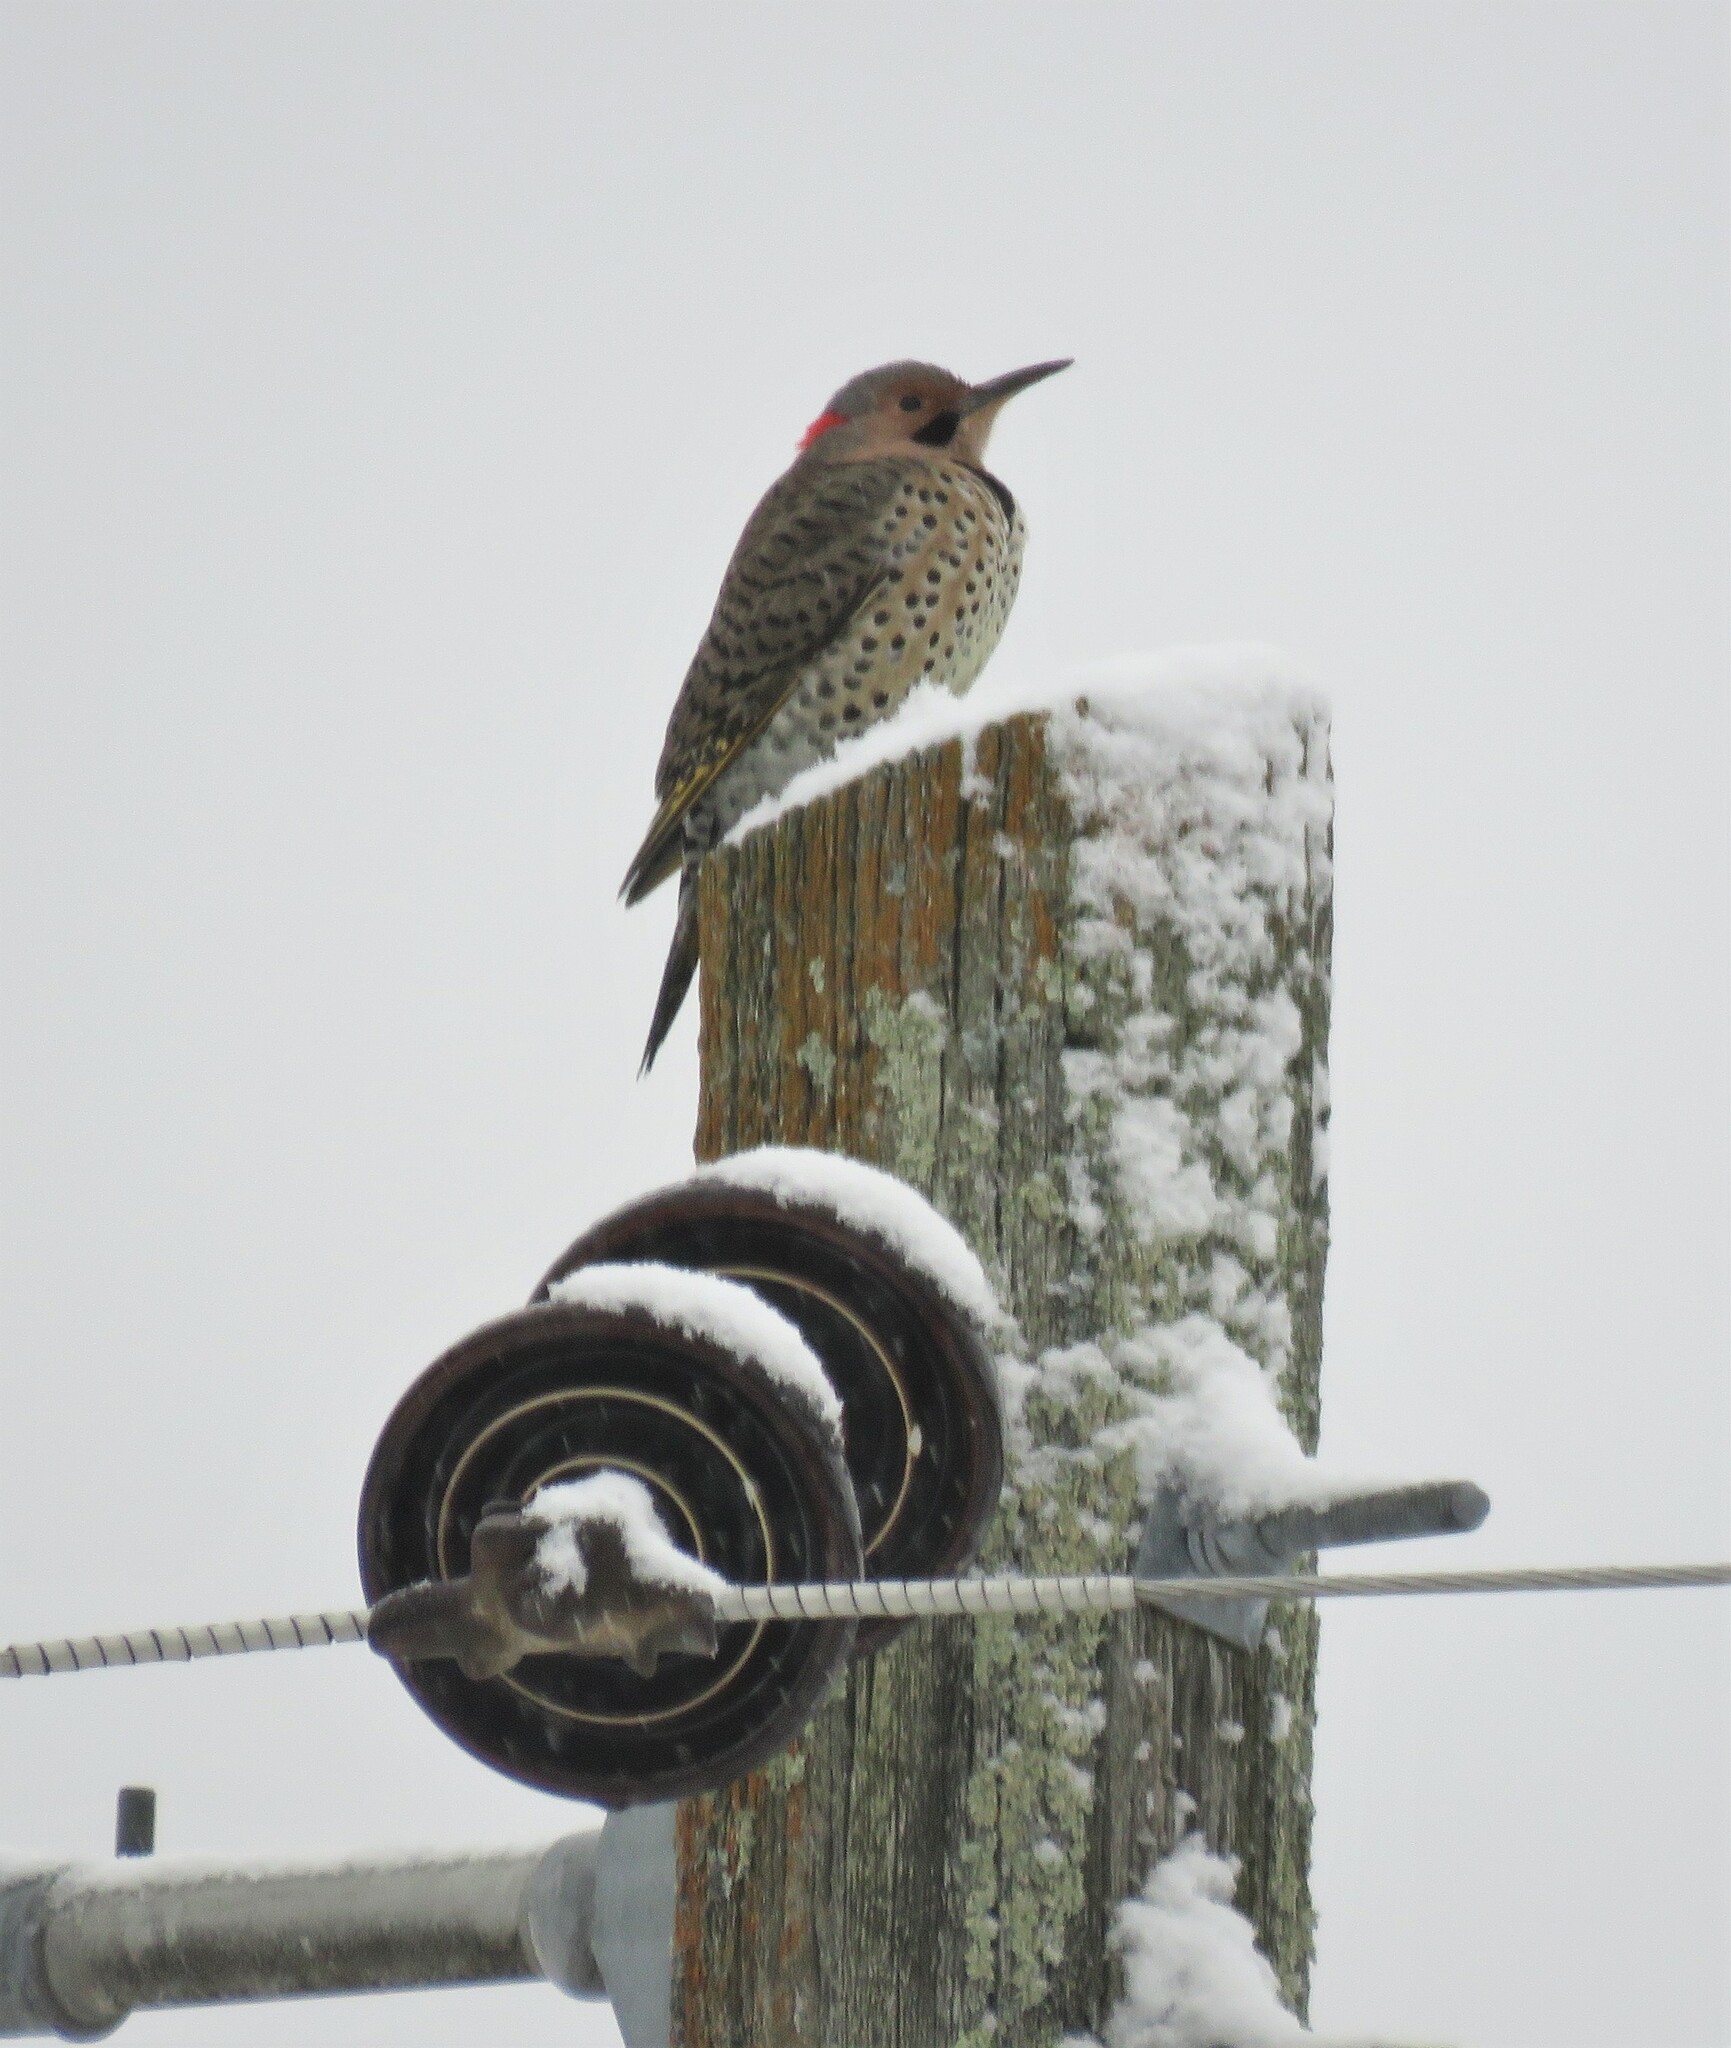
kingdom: Animalia
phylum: Chordata
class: Aves
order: Piciformes
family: Picidae
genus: Colaptes
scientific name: Colaptes auratus
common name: Northern flicker
